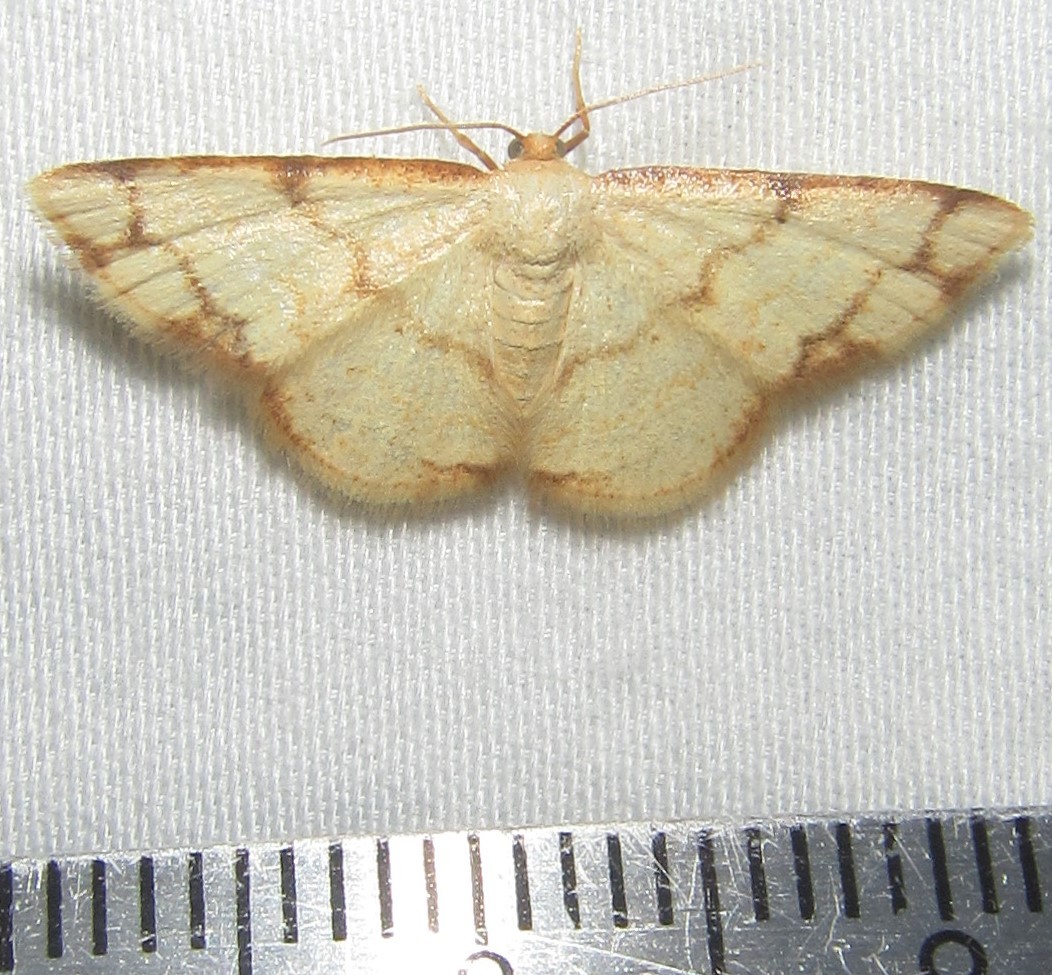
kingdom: Animalia
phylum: Arthropoda
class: Insecta
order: Lepidoptera
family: Geometridae
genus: Lomographa
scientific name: Lomographa aridata
